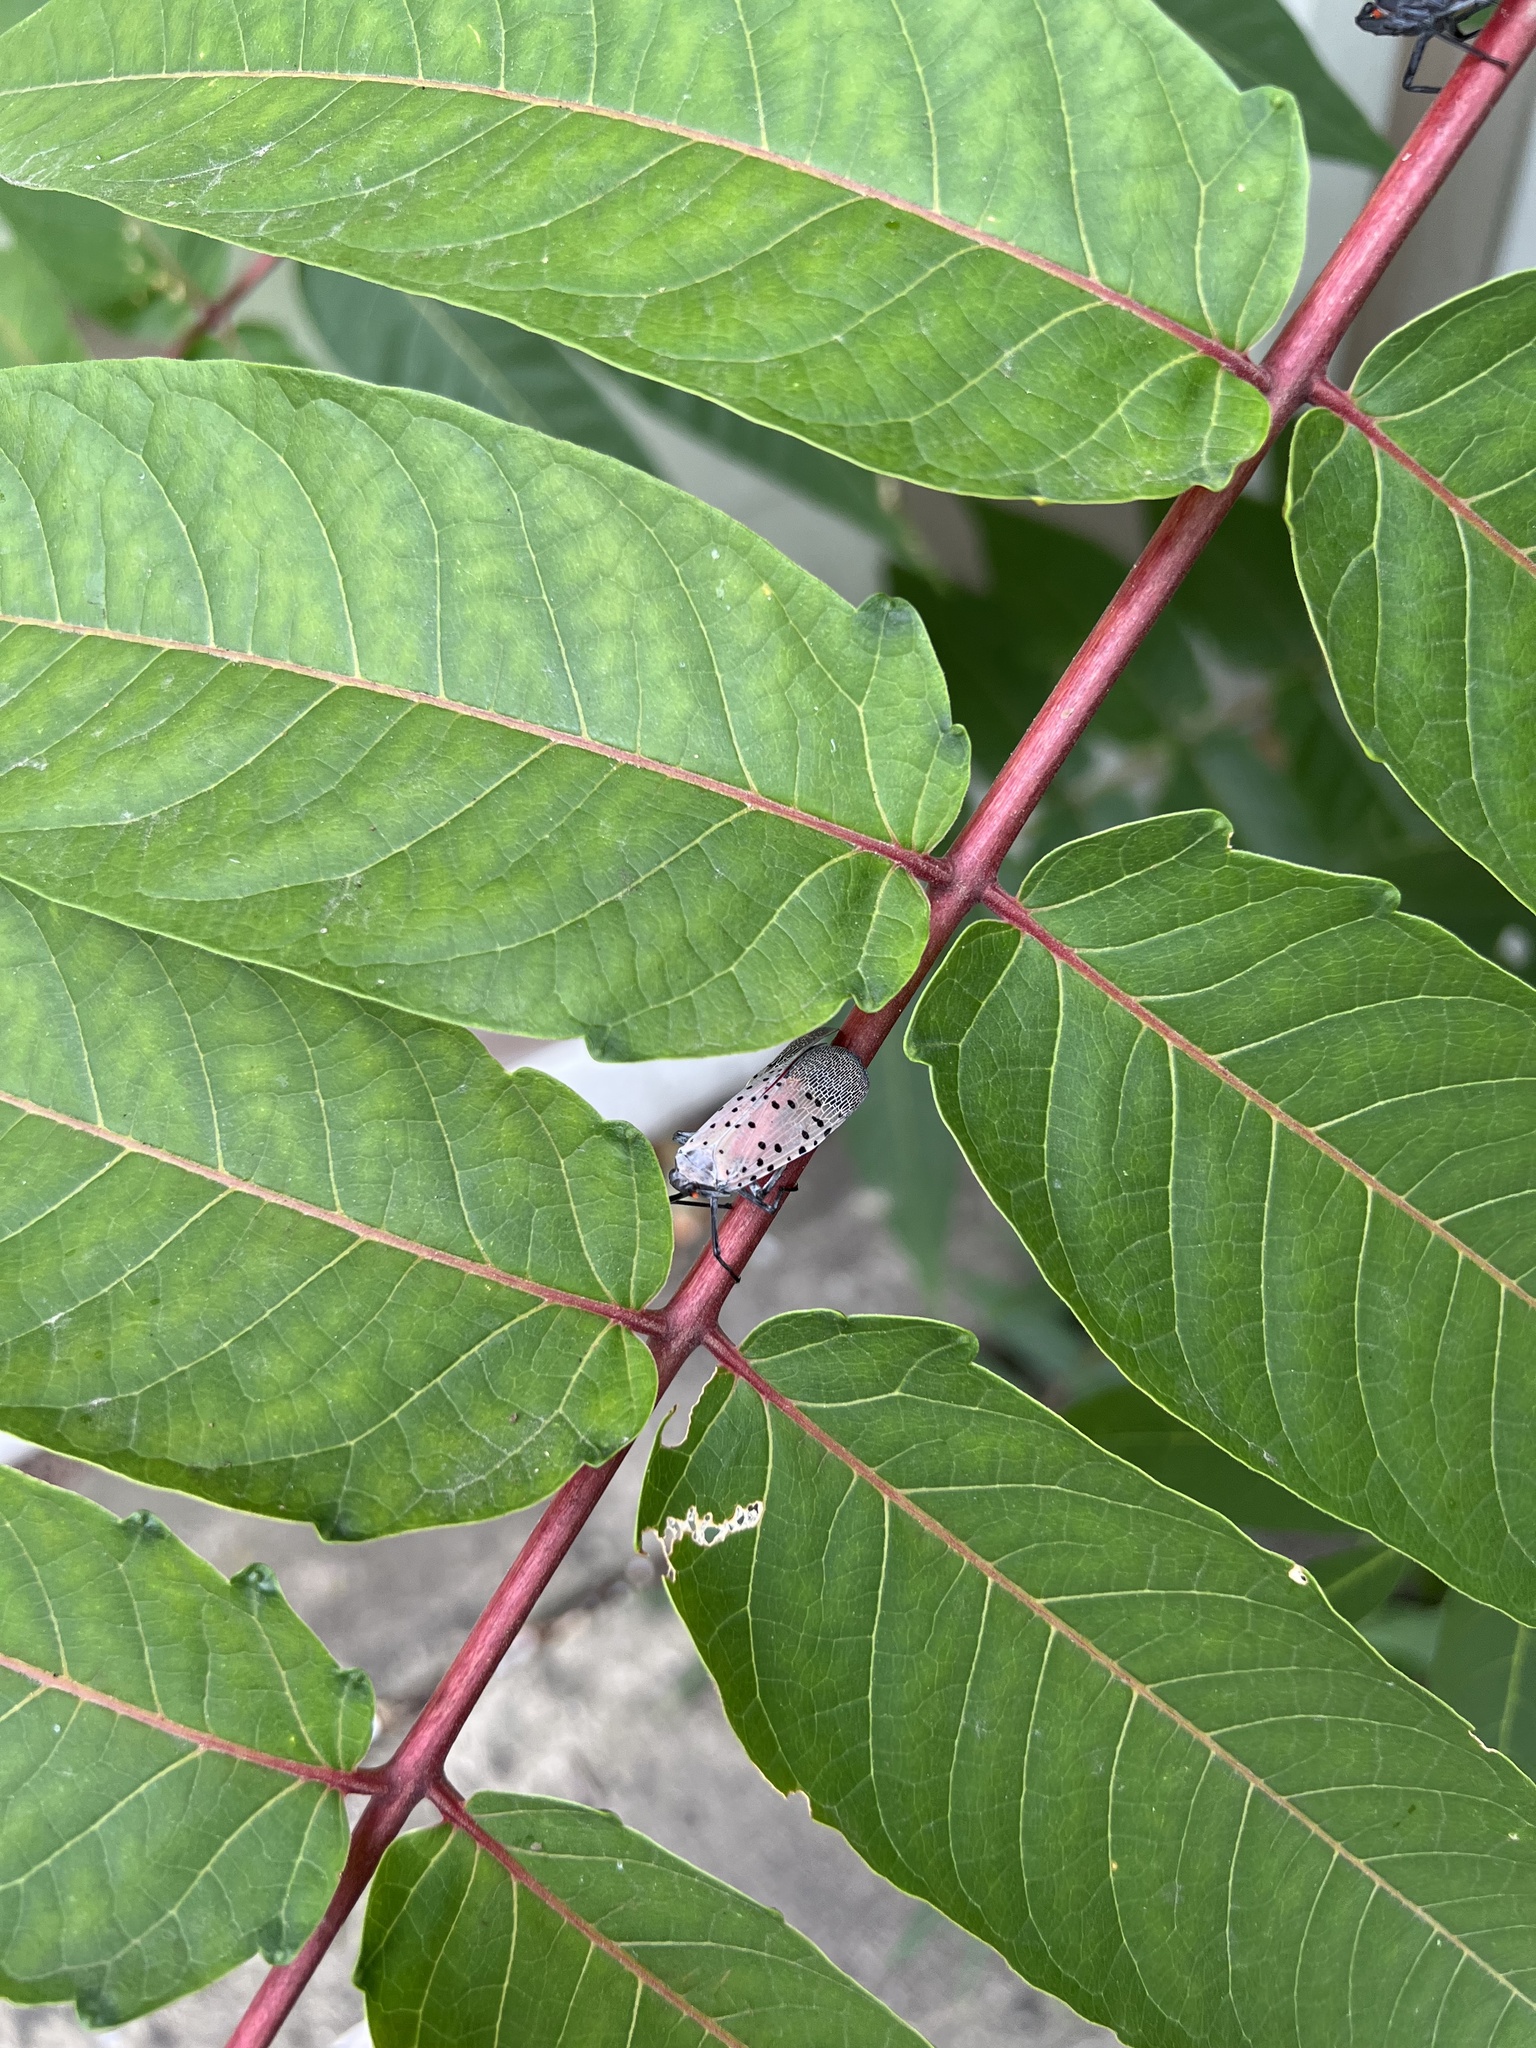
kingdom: Animalia
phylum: Arthropoda
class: Insecta
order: Hemiptera
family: Fulgoridae
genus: Lycorma
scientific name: Lycorma delicatula
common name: Spotted lanternfly
